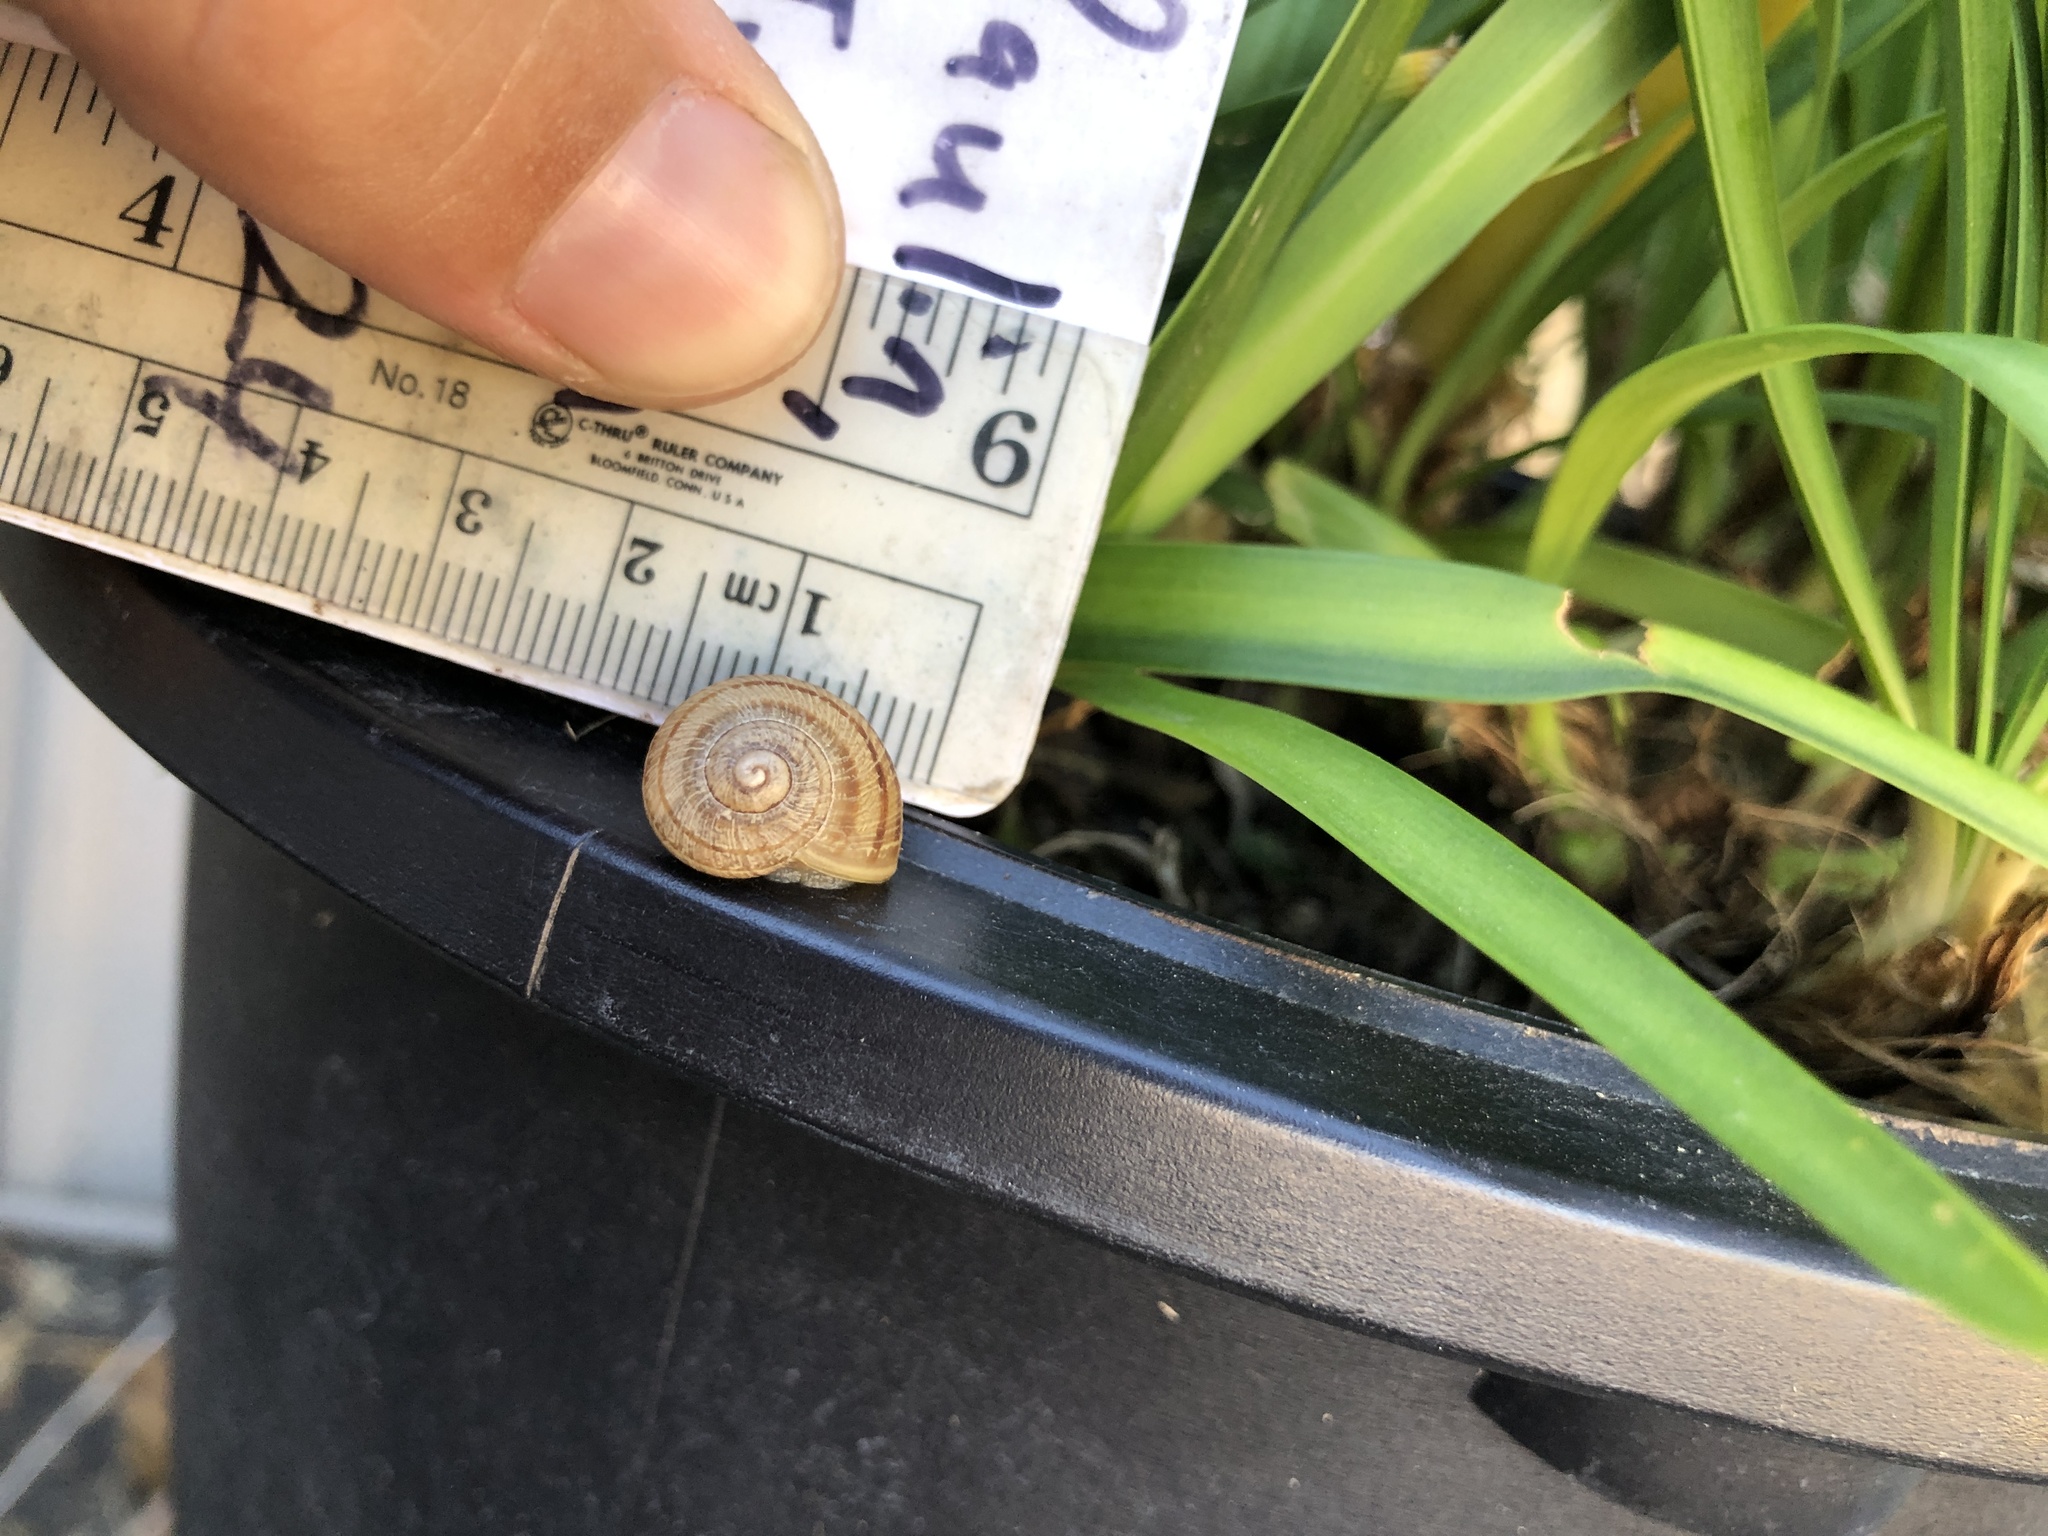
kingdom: Animalia
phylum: Mollusca
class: Gastropoda
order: Stylommatophora
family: Helicidae
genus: Cornu
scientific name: Cornu aspersum
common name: Brown garden snail
